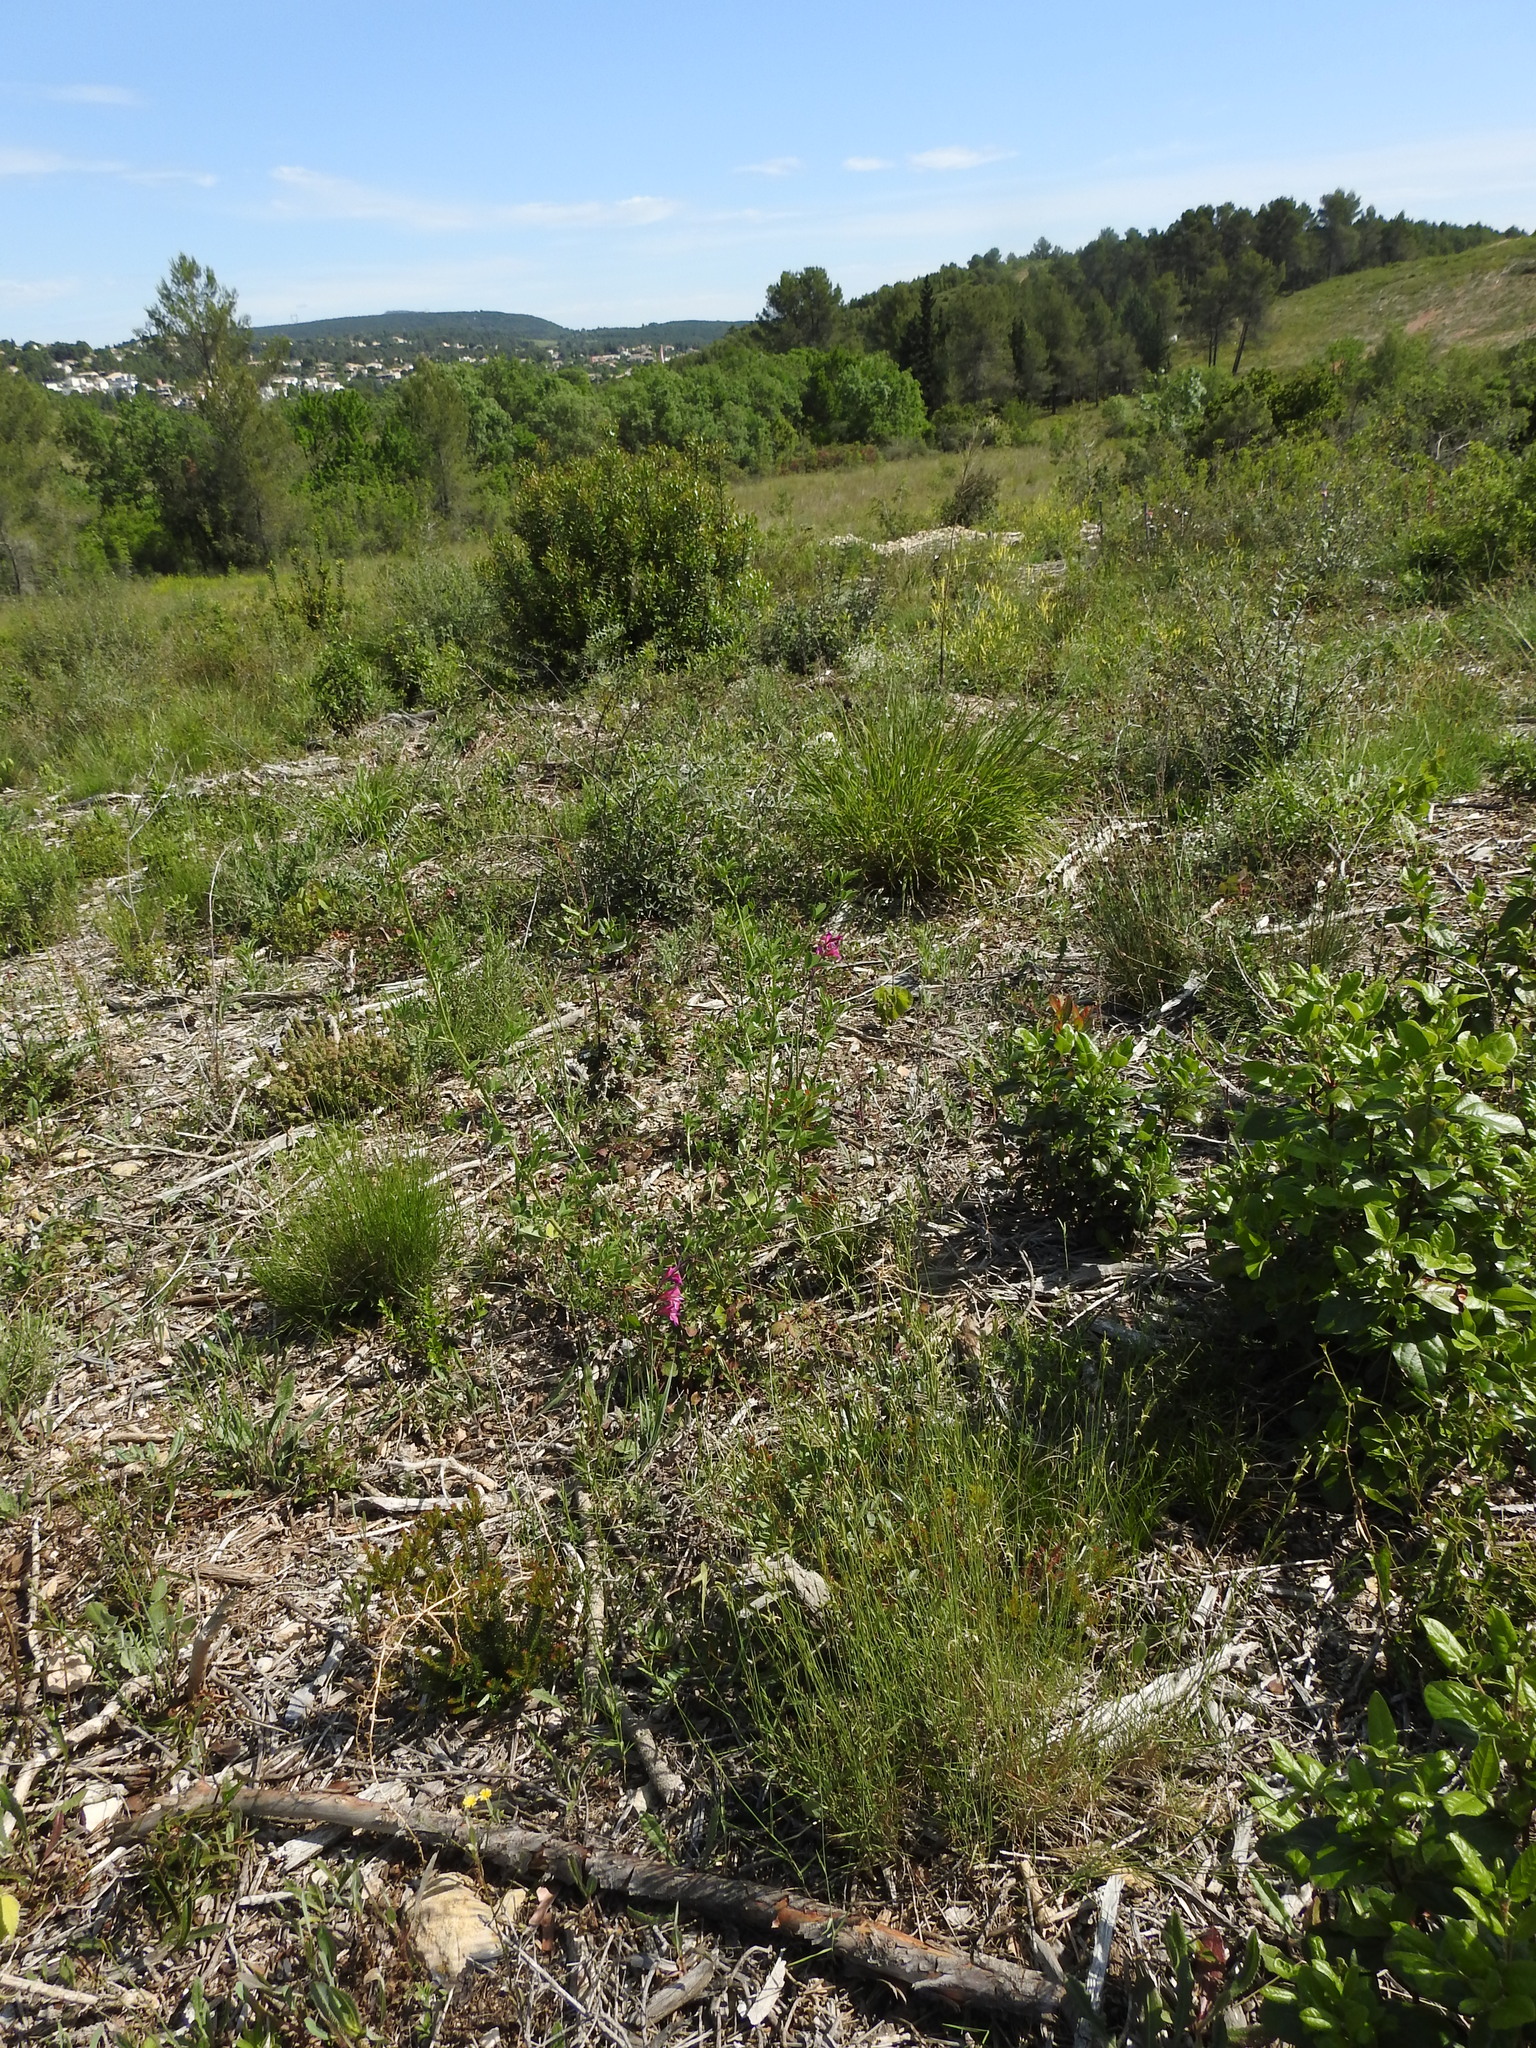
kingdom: Plantae
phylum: Tracheophyta
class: Liliopsida
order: Asparagales
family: Iridaceae
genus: Gladiolus
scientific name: Gladiolus dubius
